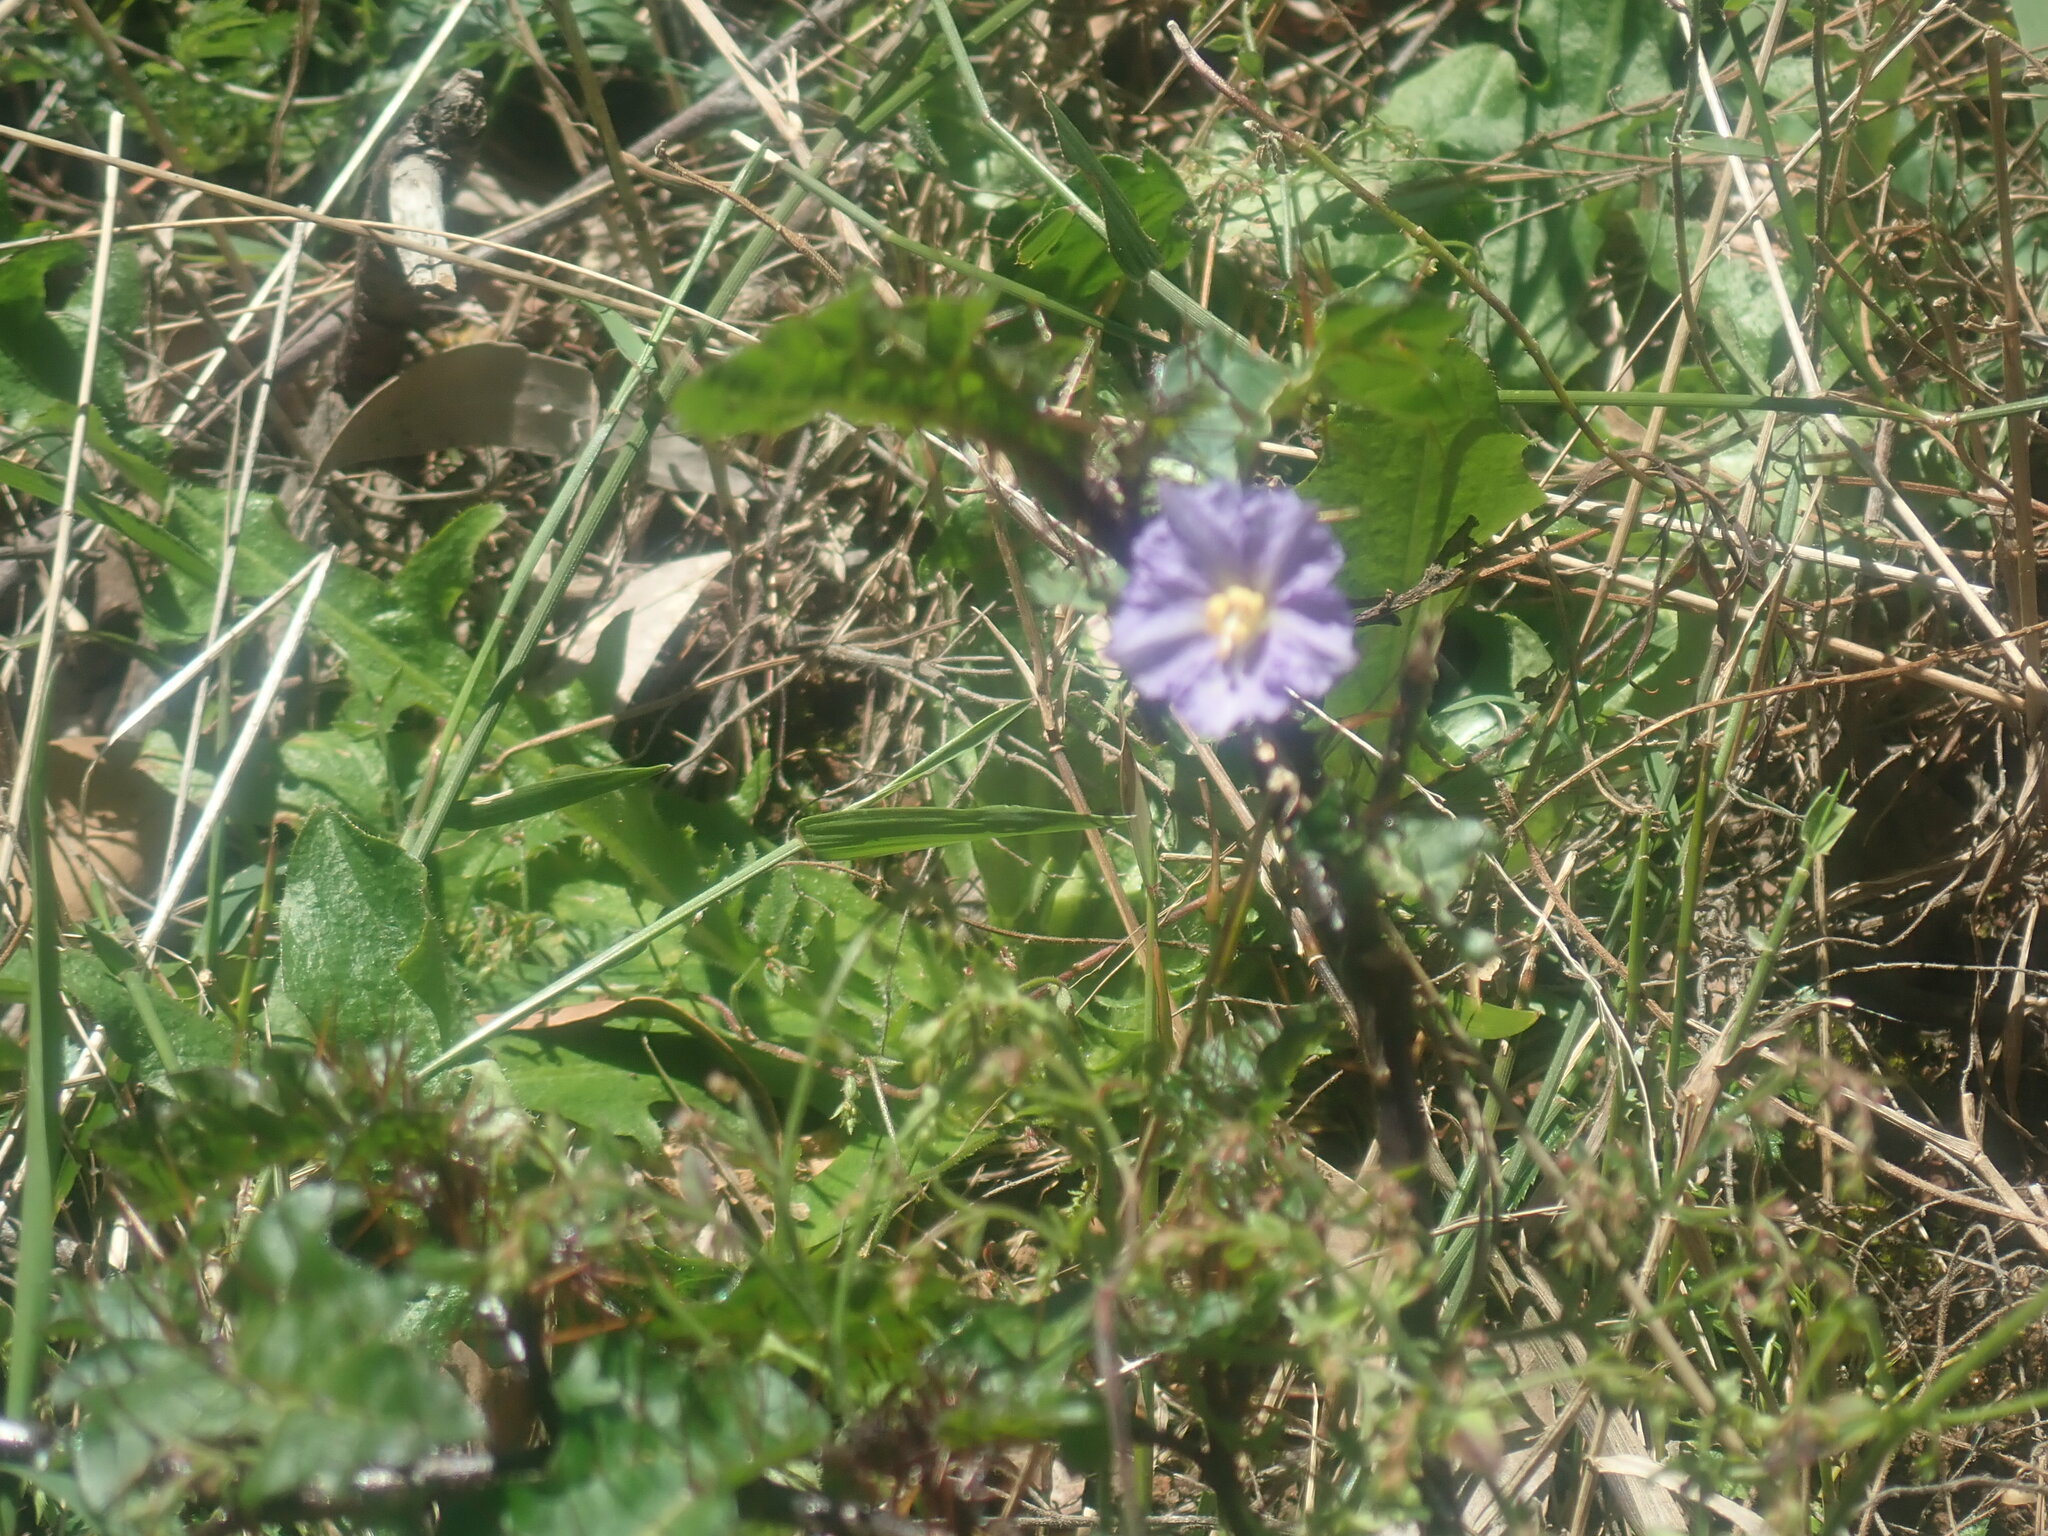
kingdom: Plantae
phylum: Tracheophyta
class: Magnoliopsida
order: Solanales
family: Solanaceae
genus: Solanum
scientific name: Solanum prinophyllum
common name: Forest nightshade
